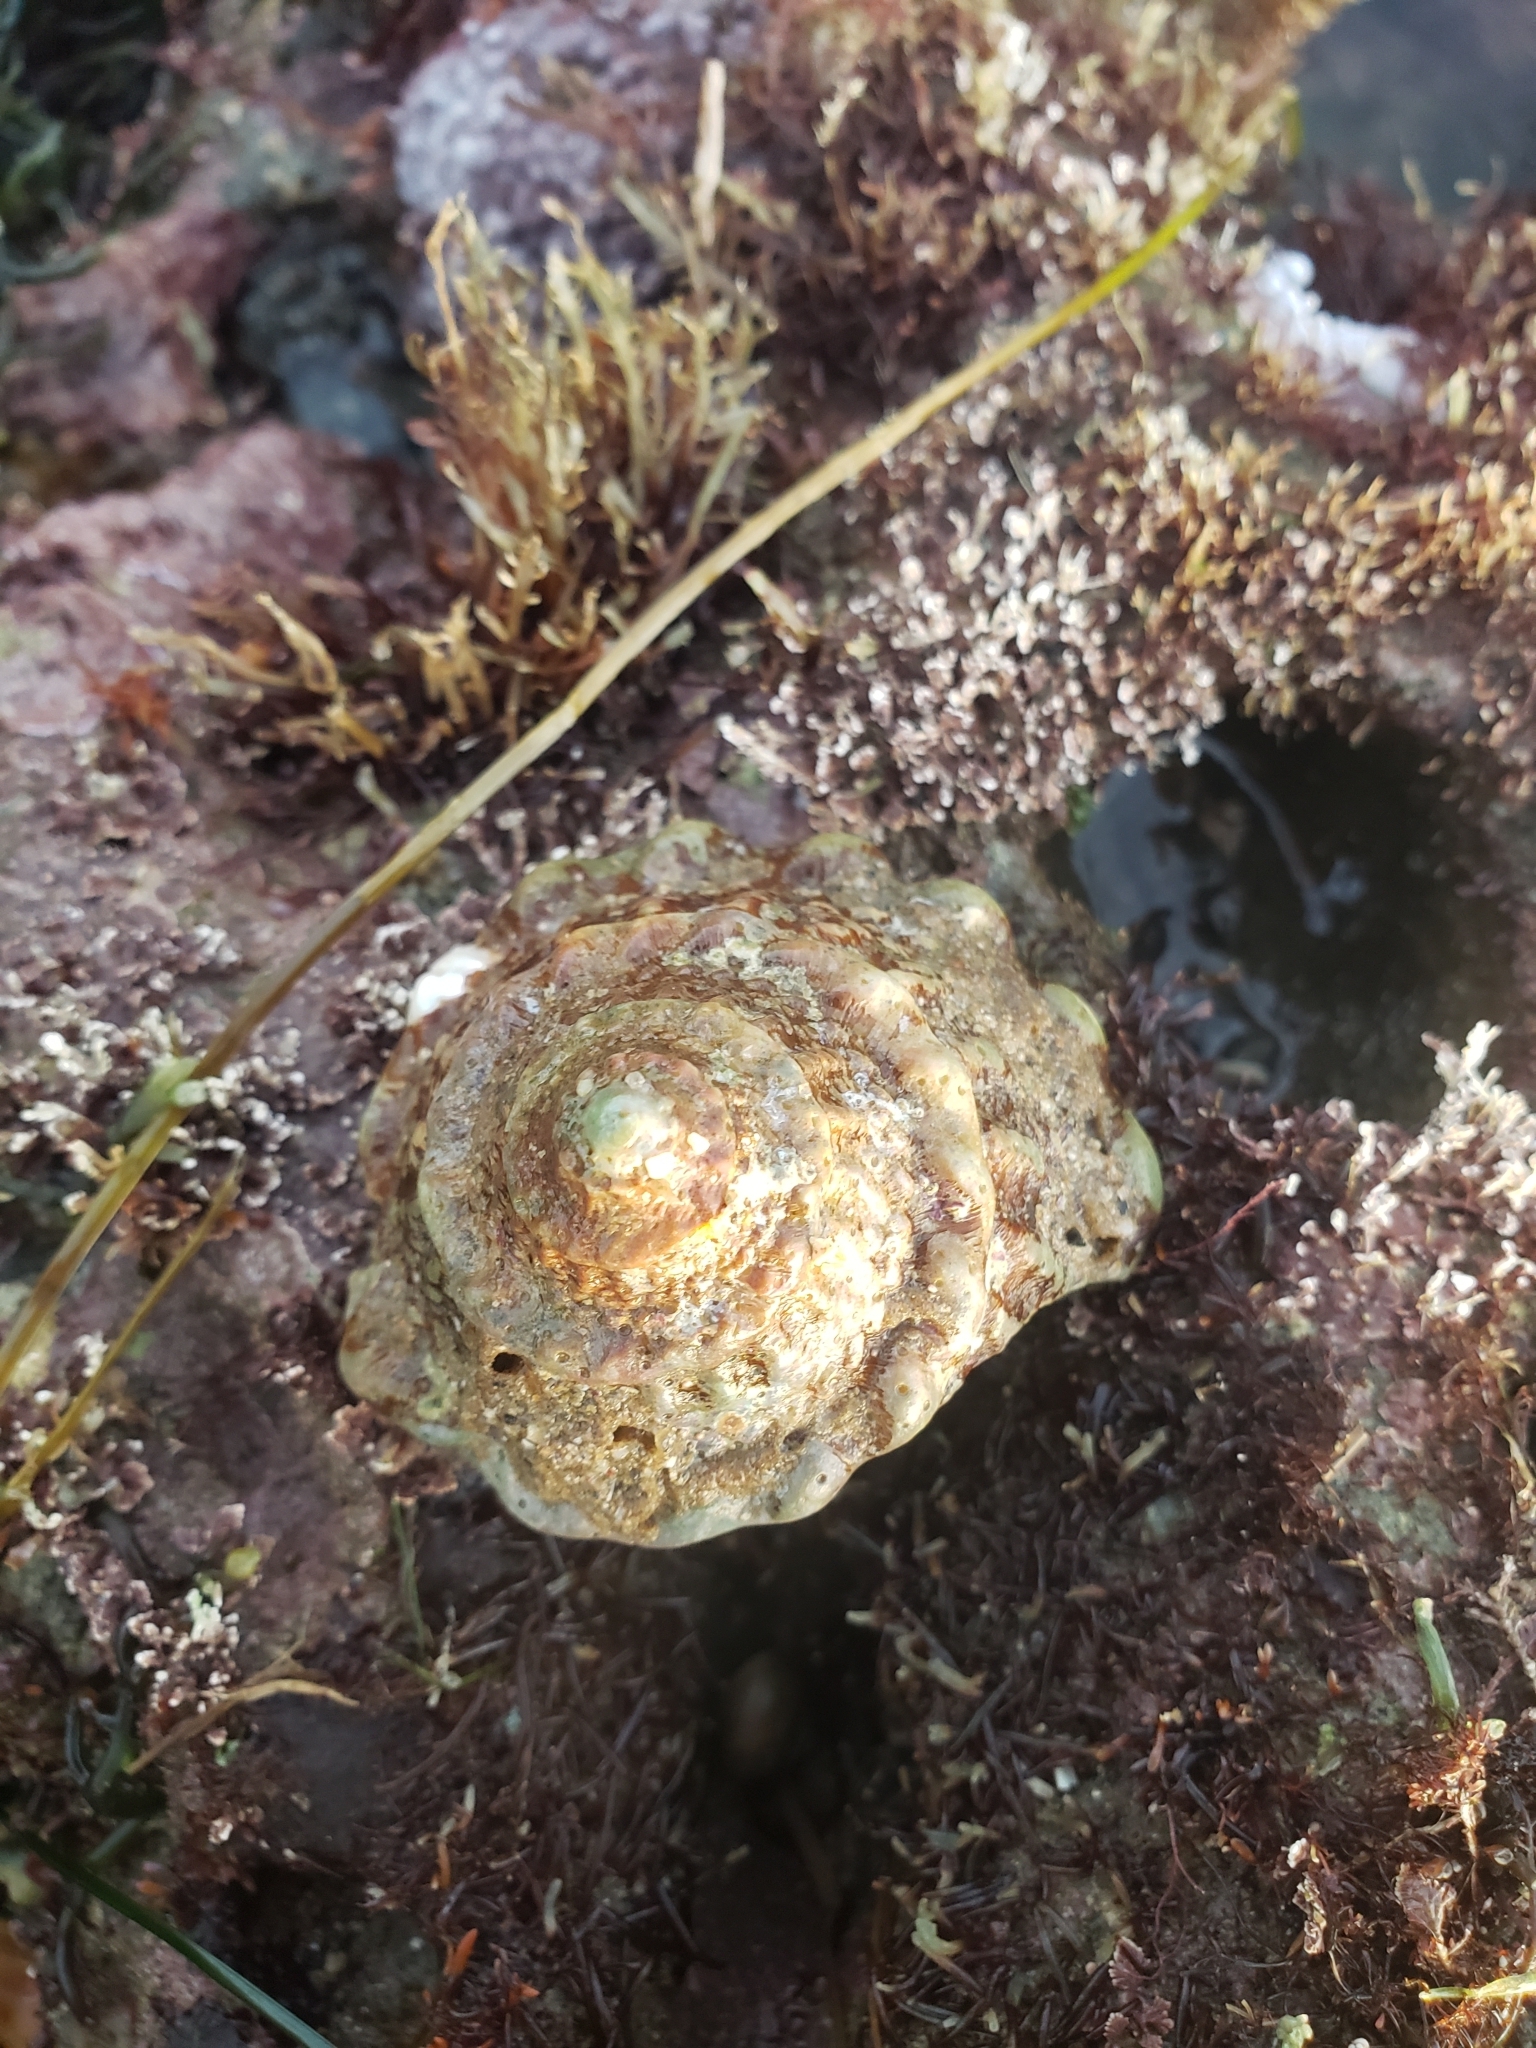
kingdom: Animalia
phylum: Mollusca
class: Gastropoda
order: Trochida
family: Turbinidae
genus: Megastraea
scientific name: Megastraea undosa
